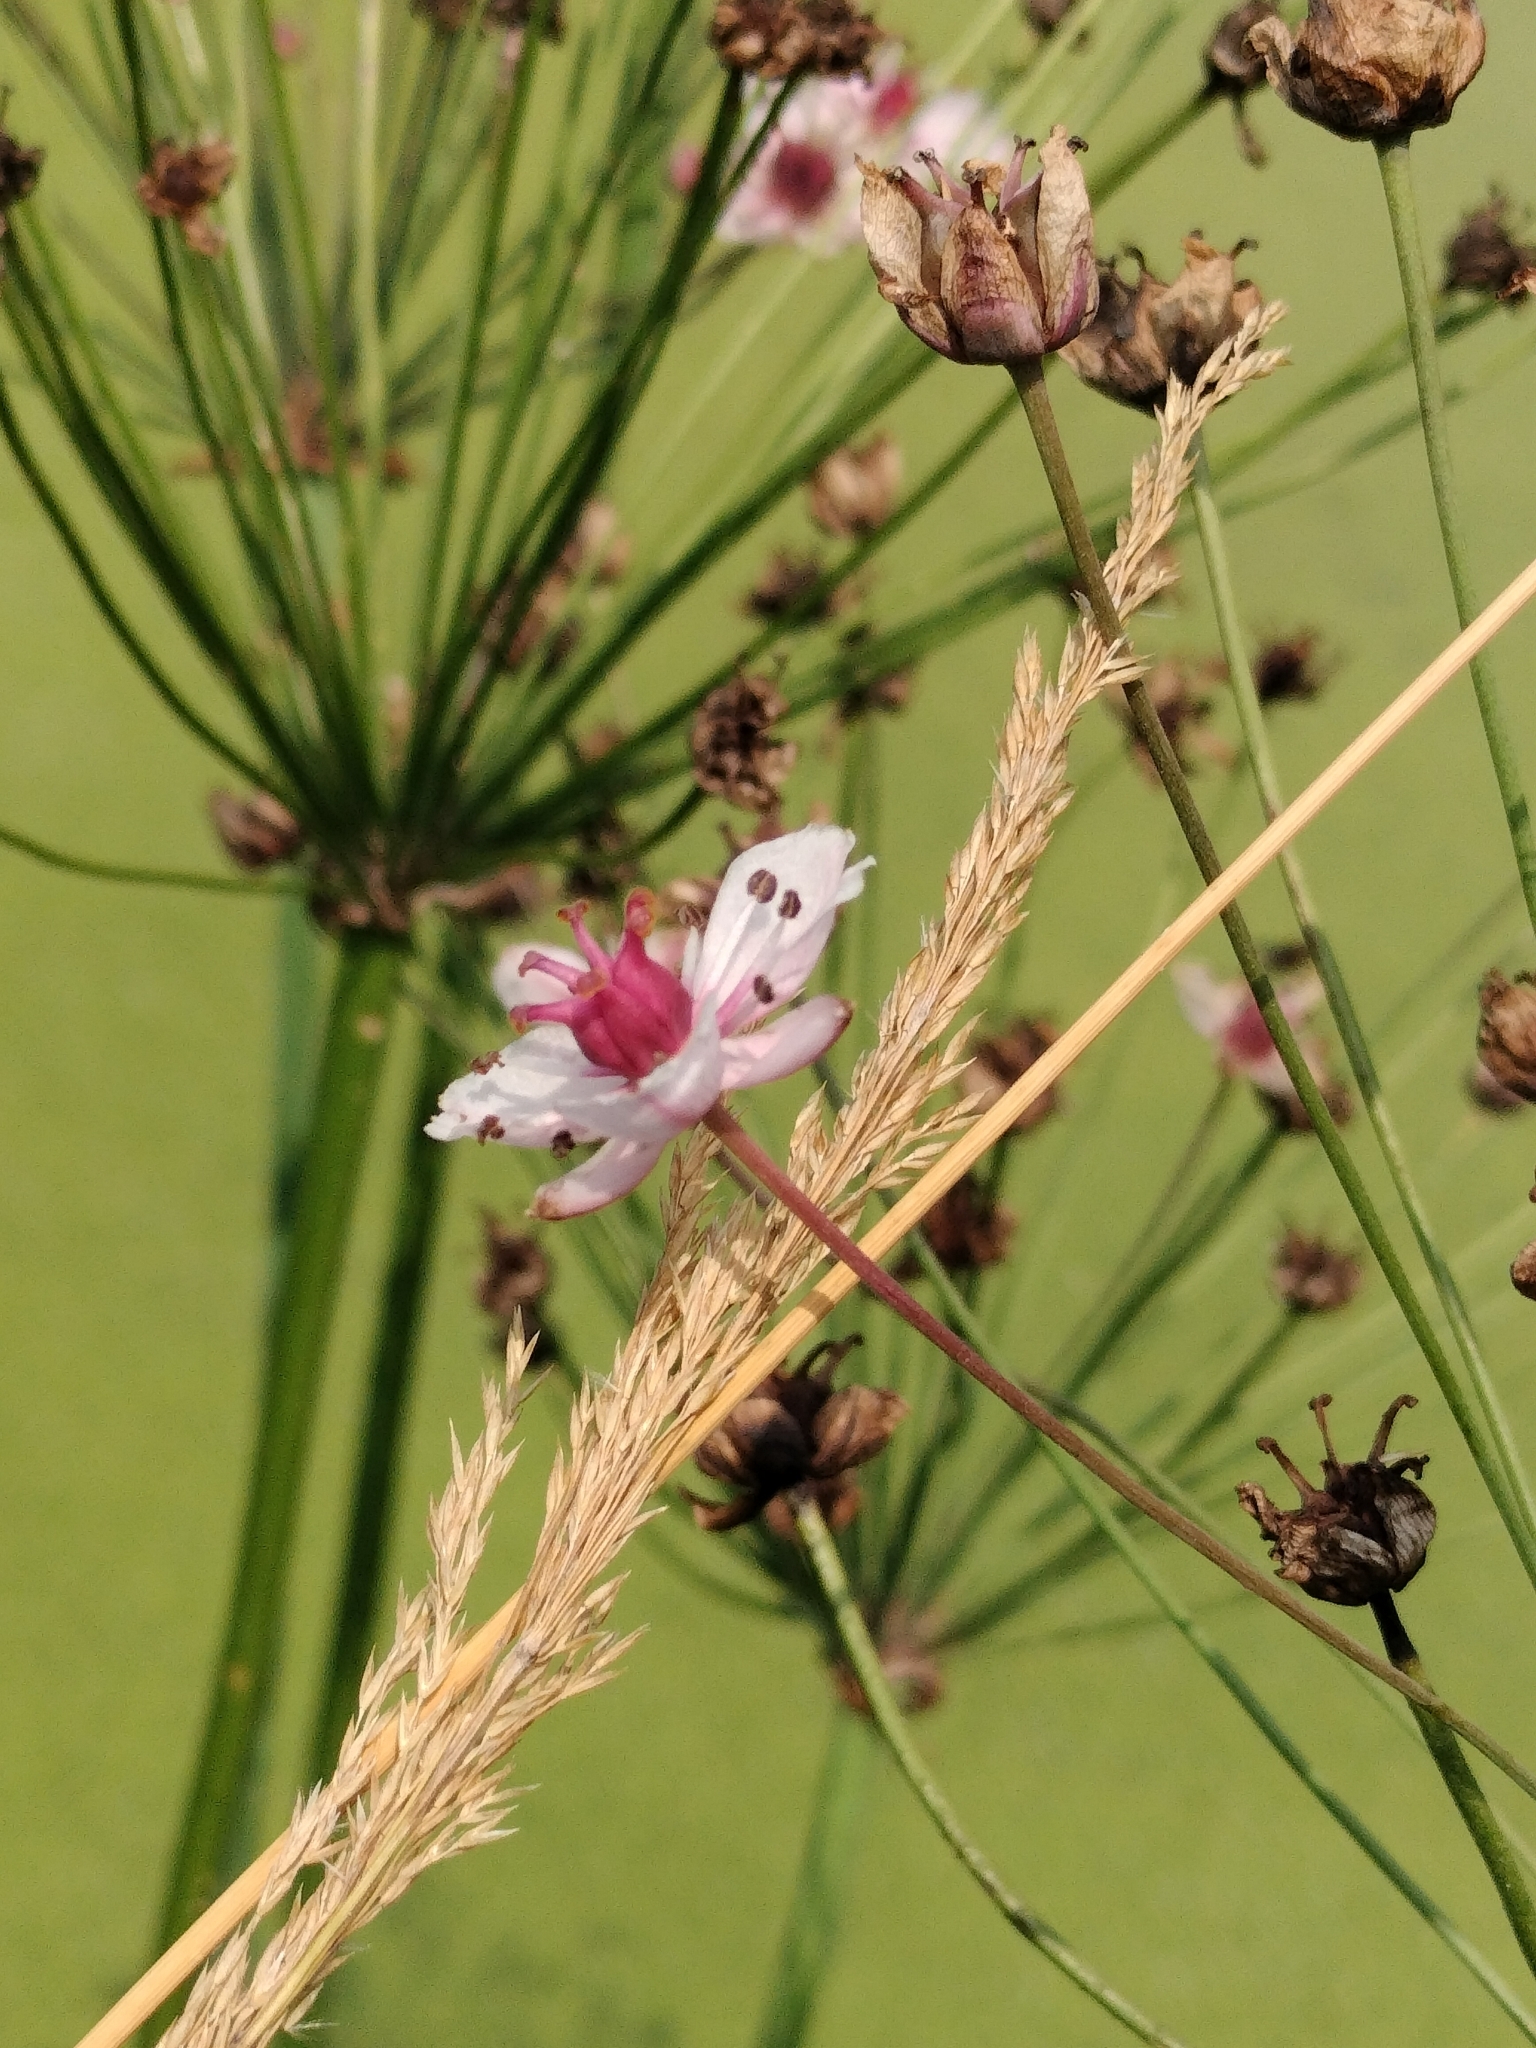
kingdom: Plantae
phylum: Tracheophyta
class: Liliopsida
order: Alismatales
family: Butomaceae
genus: Butomus
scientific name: Butomus umbellatus
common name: Flowering-rush
